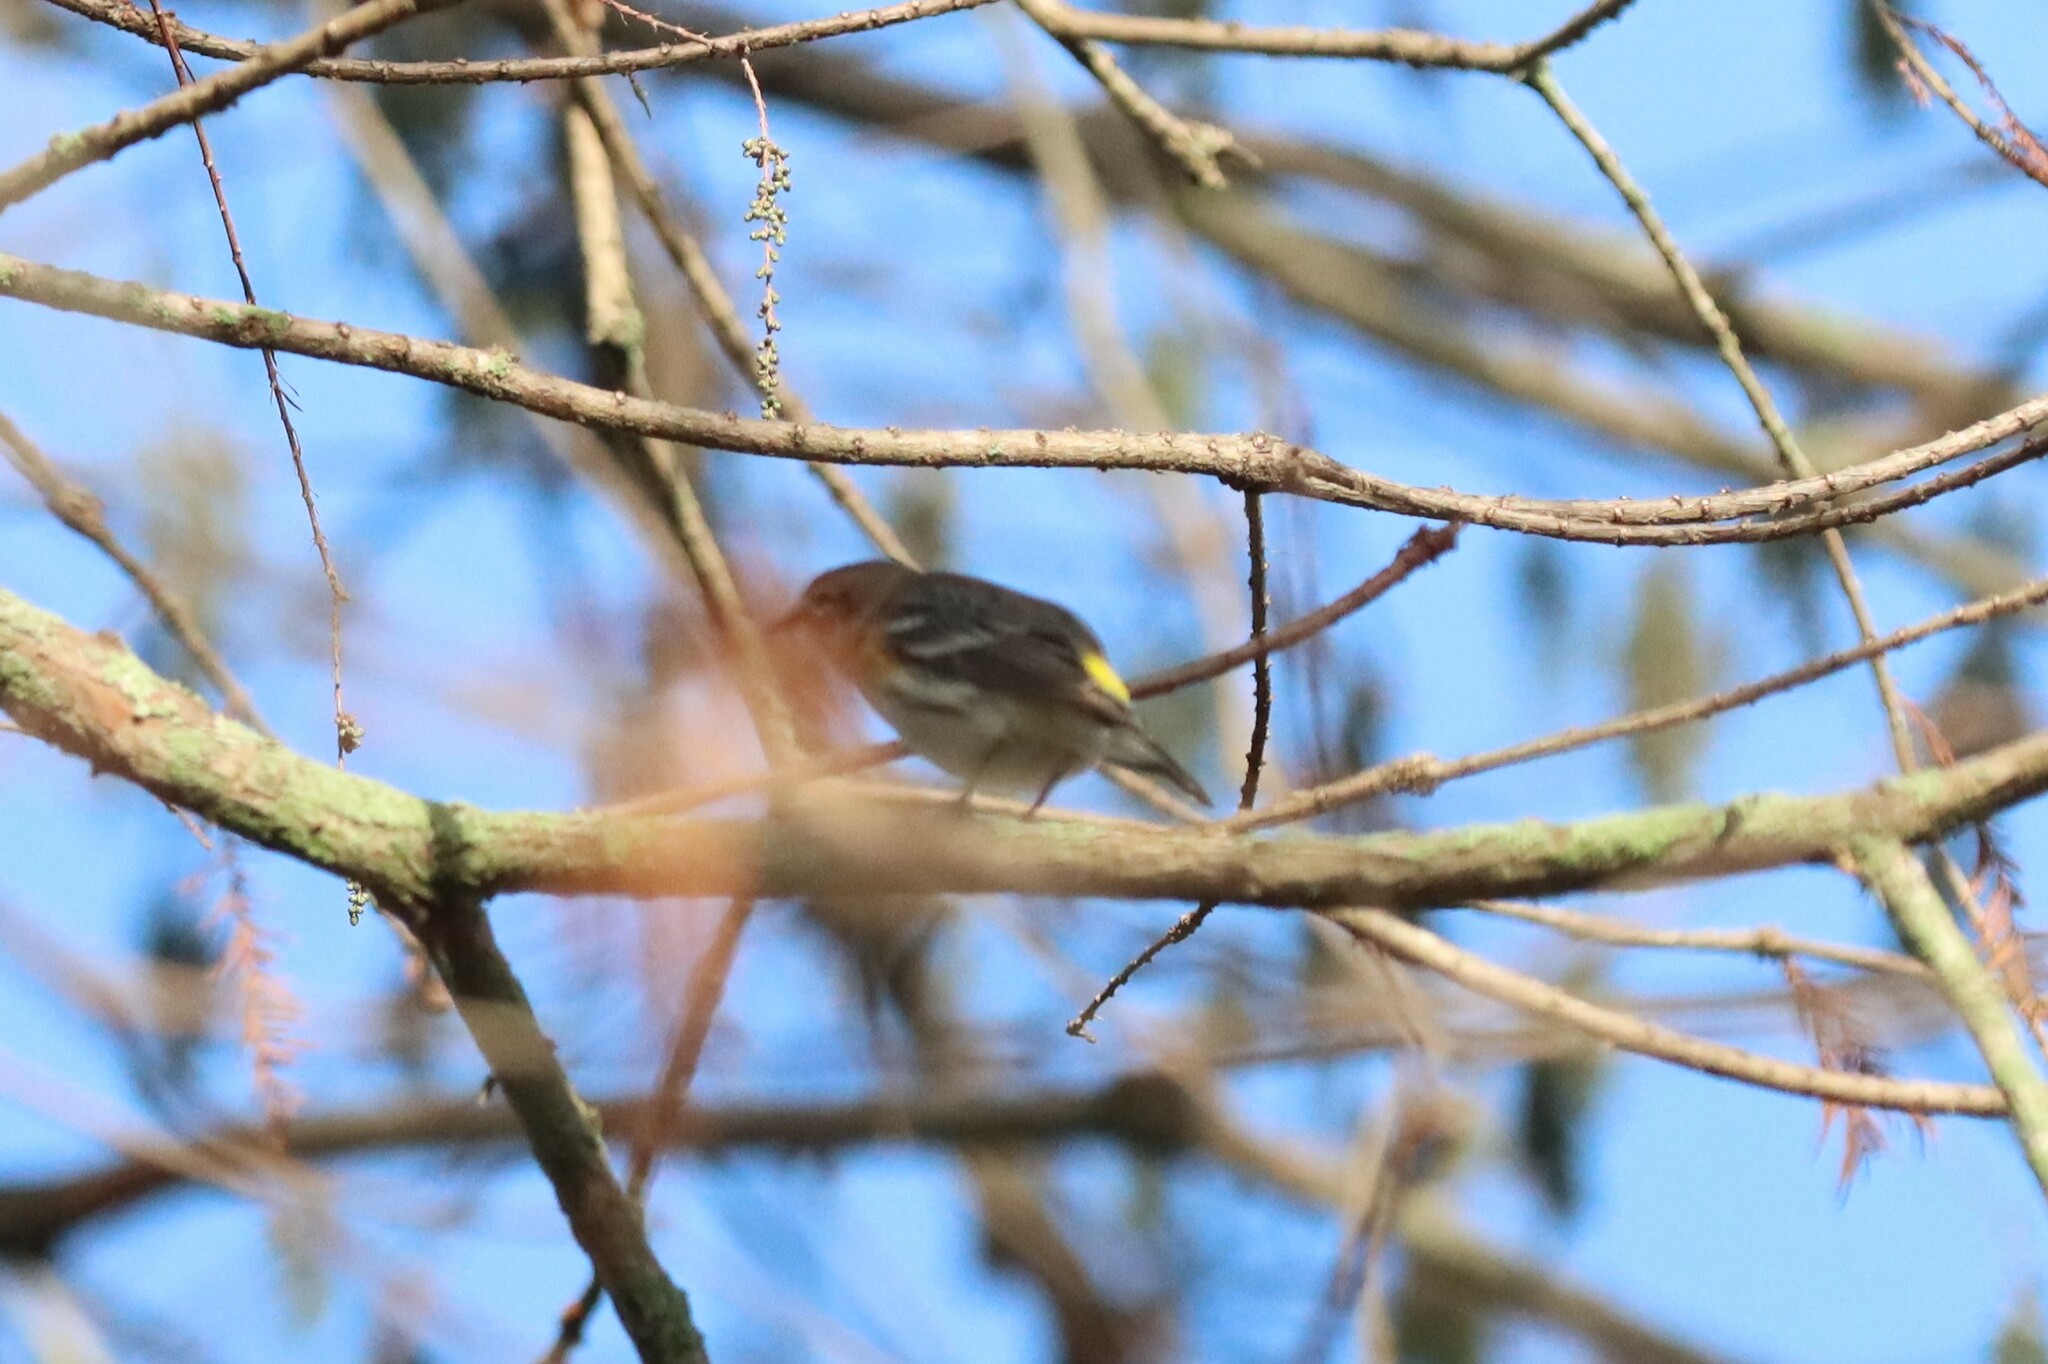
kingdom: Animalia
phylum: Chordata
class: Aves
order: Passeriformes
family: Parulidae
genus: Setophaga
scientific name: Setophaga coronata
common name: Myrtle warbler
